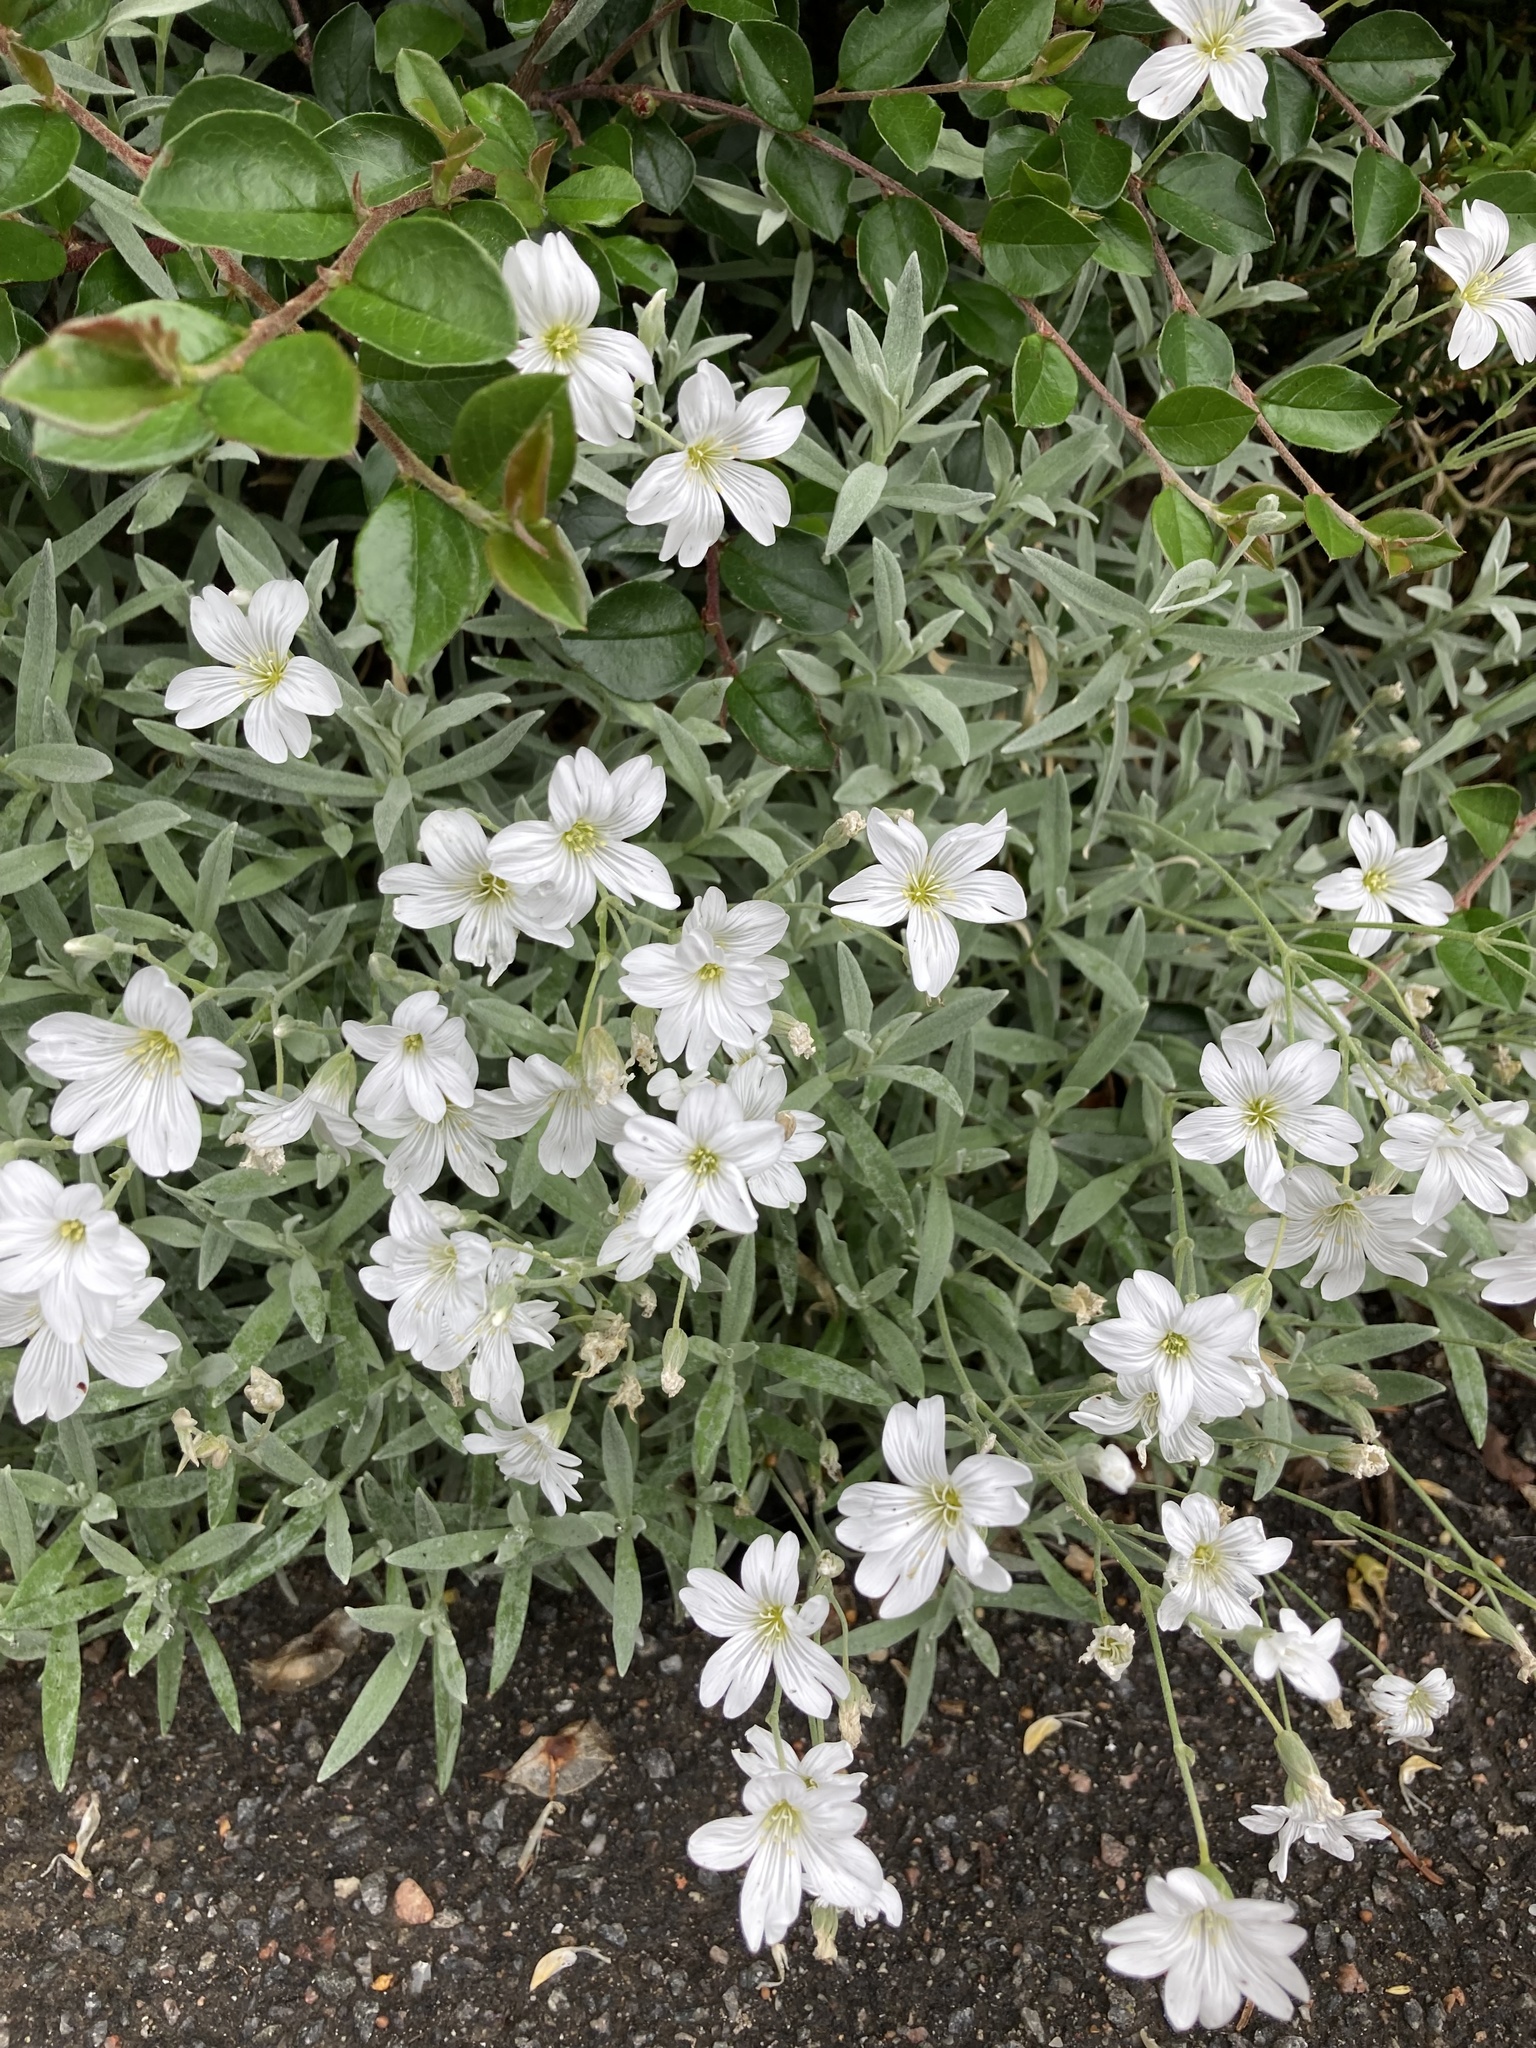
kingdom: Plantae
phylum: Tracheophyta
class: Magnoliopsida
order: Caryophyllales
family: Caryophyllaceae
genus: Cerastium
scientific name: Cerastium tomentosum
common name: Snow-in-summer
